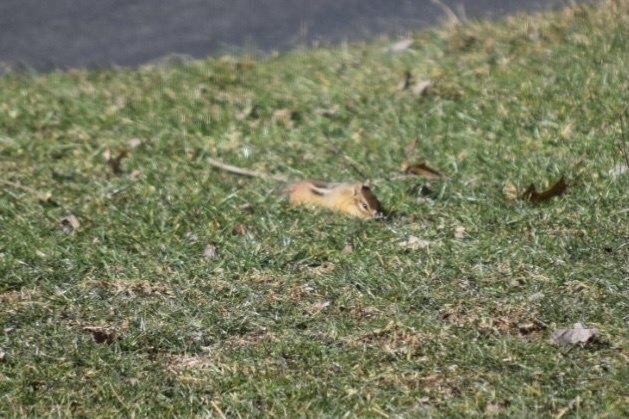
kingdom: Animalia
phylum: Chordata
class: Mammalia
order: Rodentia
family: Sciuridae
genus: Tamias
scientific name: Tamias striatus
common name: Eastern chipmunk
